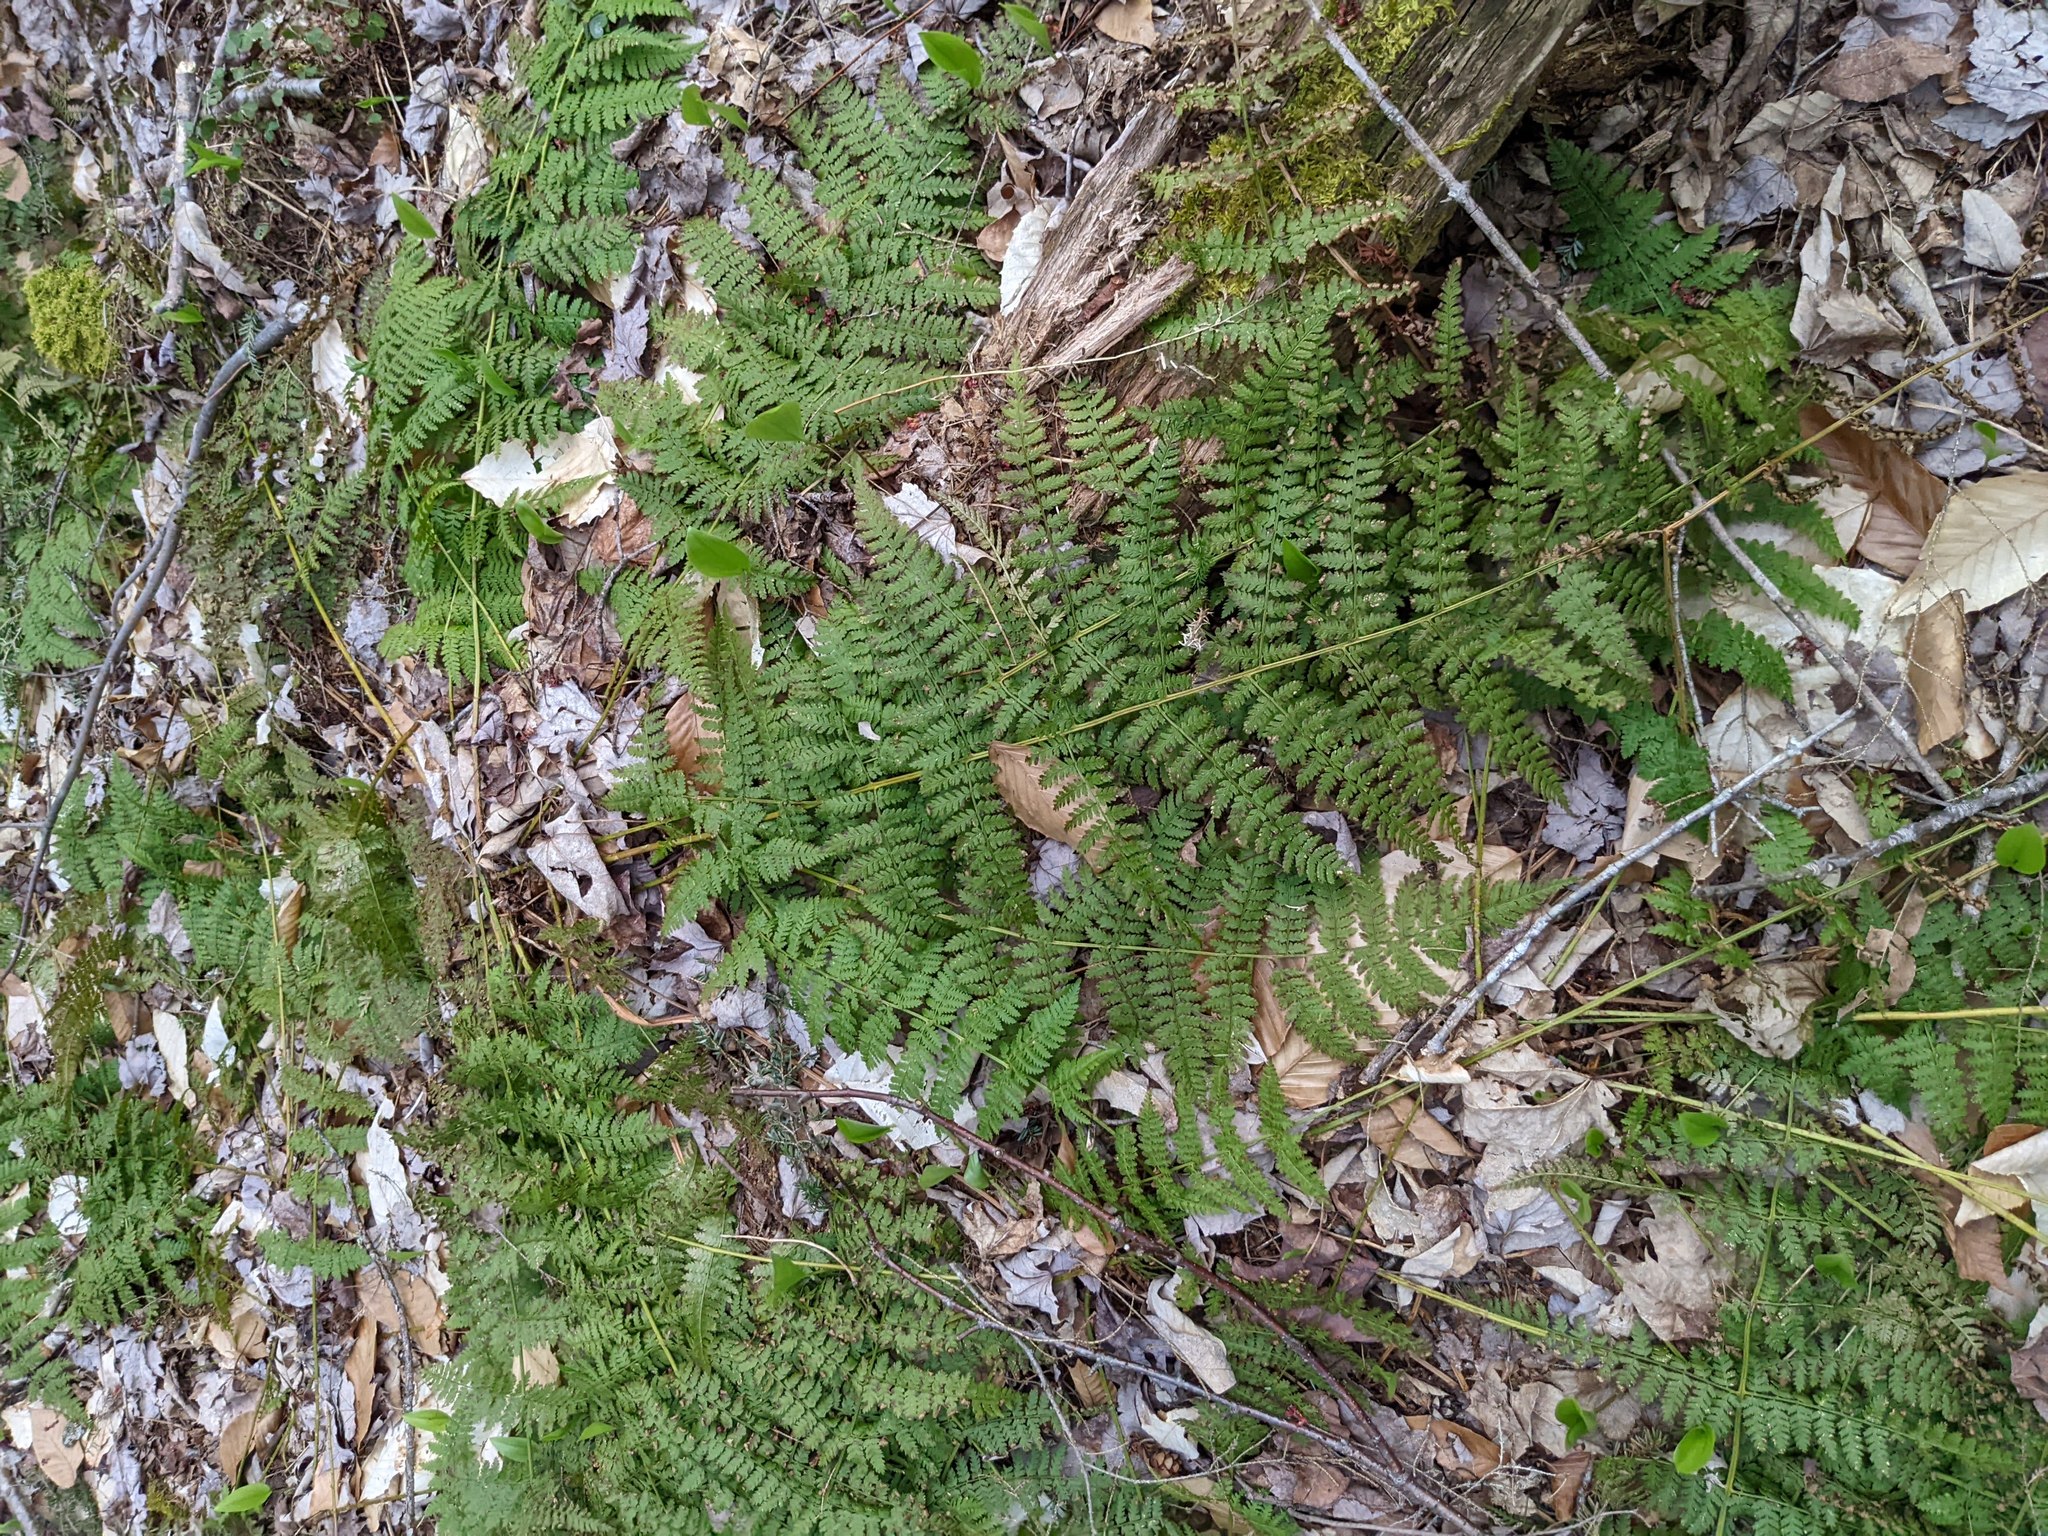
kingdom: Plantae
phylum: Tracheophyta
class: Polypodiopsida
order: Polypodiales
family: Dryopteridaceae
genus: Dryopteris
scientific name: Dryopteris intermedia
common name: Evergreen wood fern
